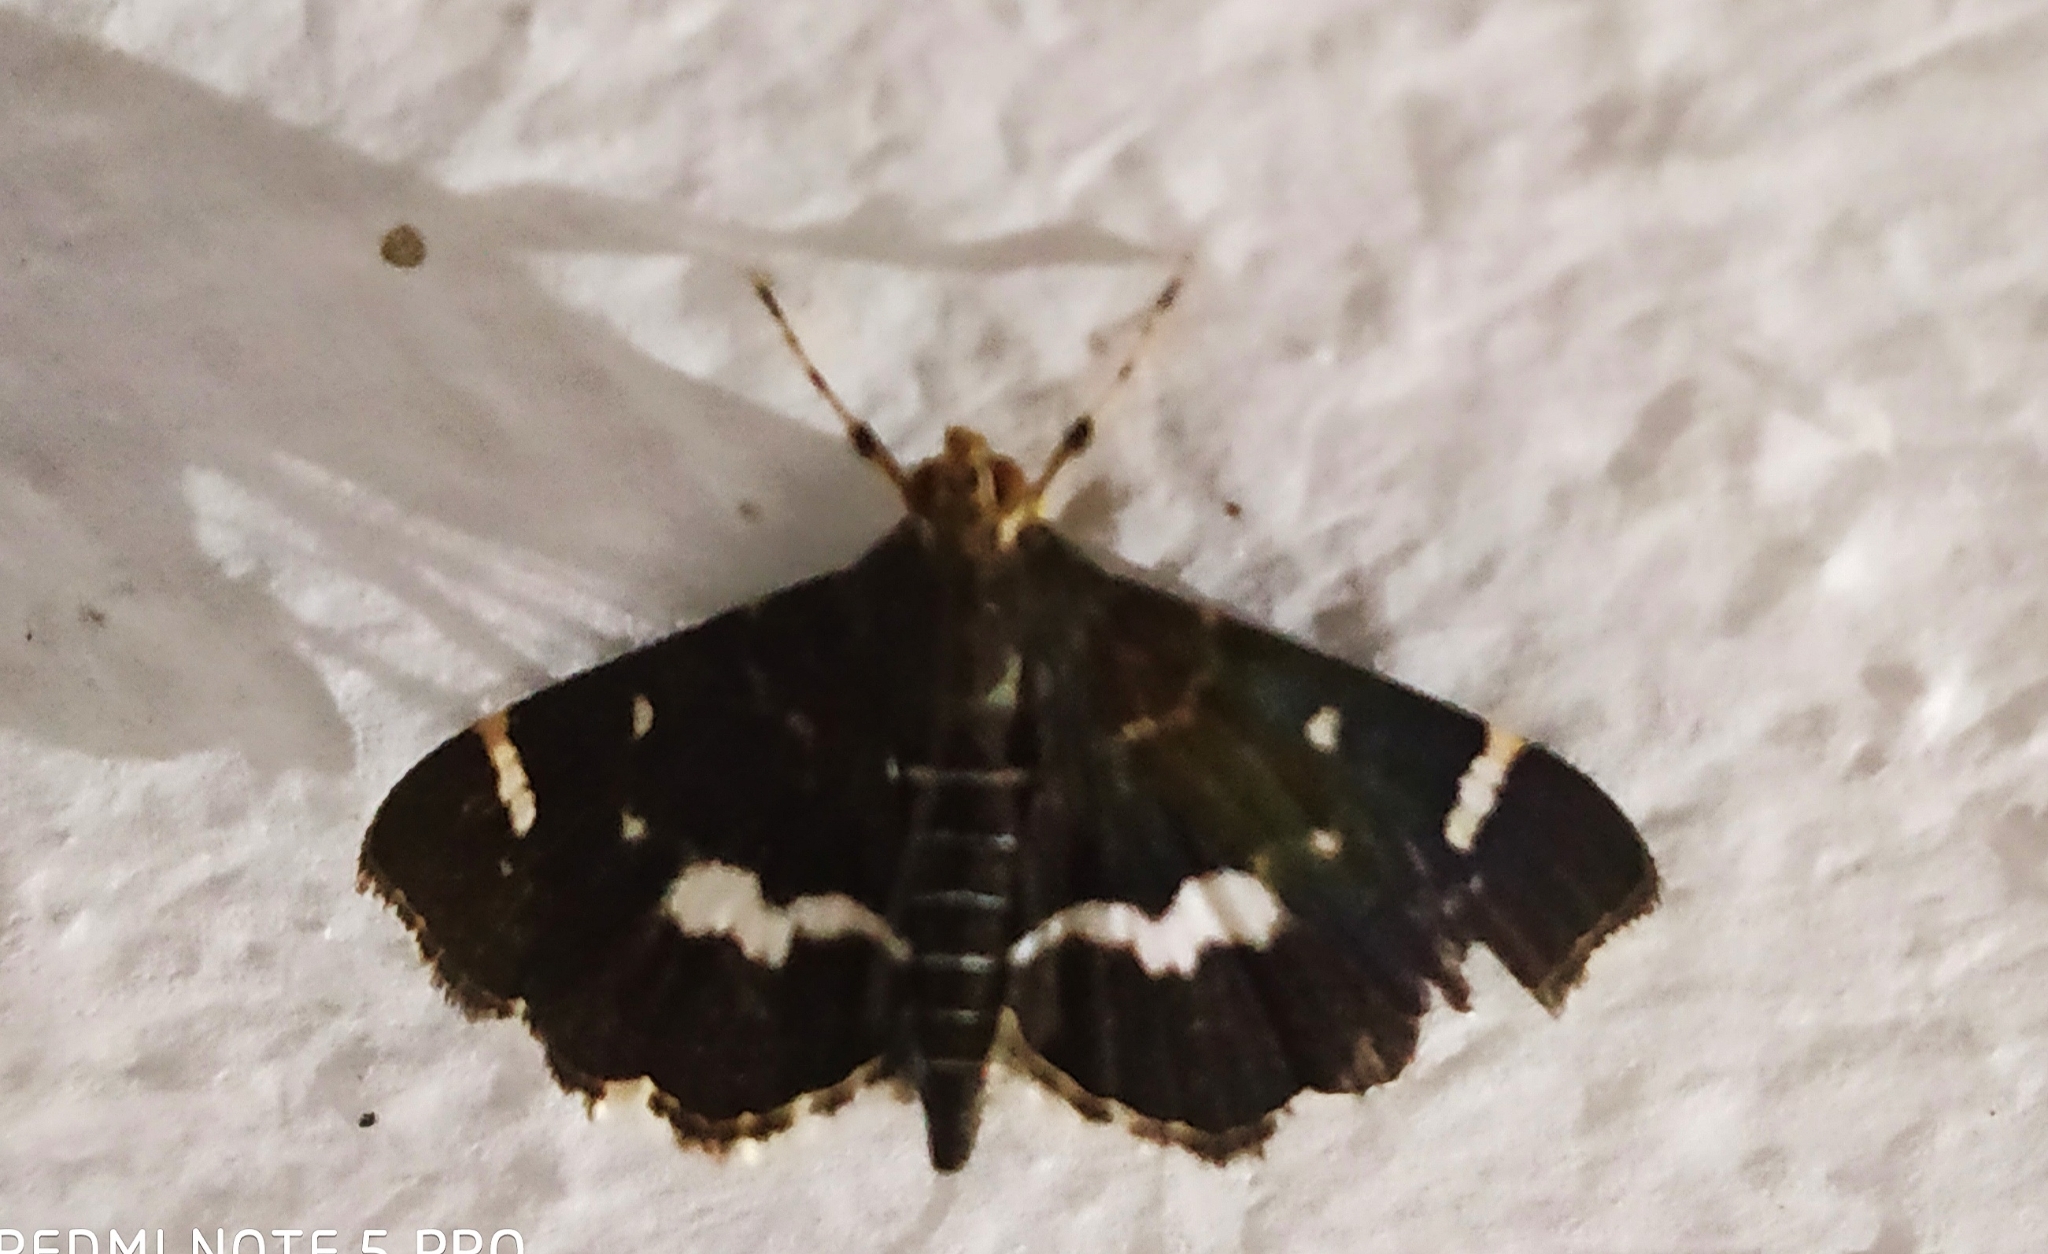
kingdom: Animalia
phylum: Arthropoda
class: Insecta
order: Lepidoptera
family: Crambidae
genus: Hymenia
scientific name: Hymenia perspectalis
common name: Spotted beet webworm
